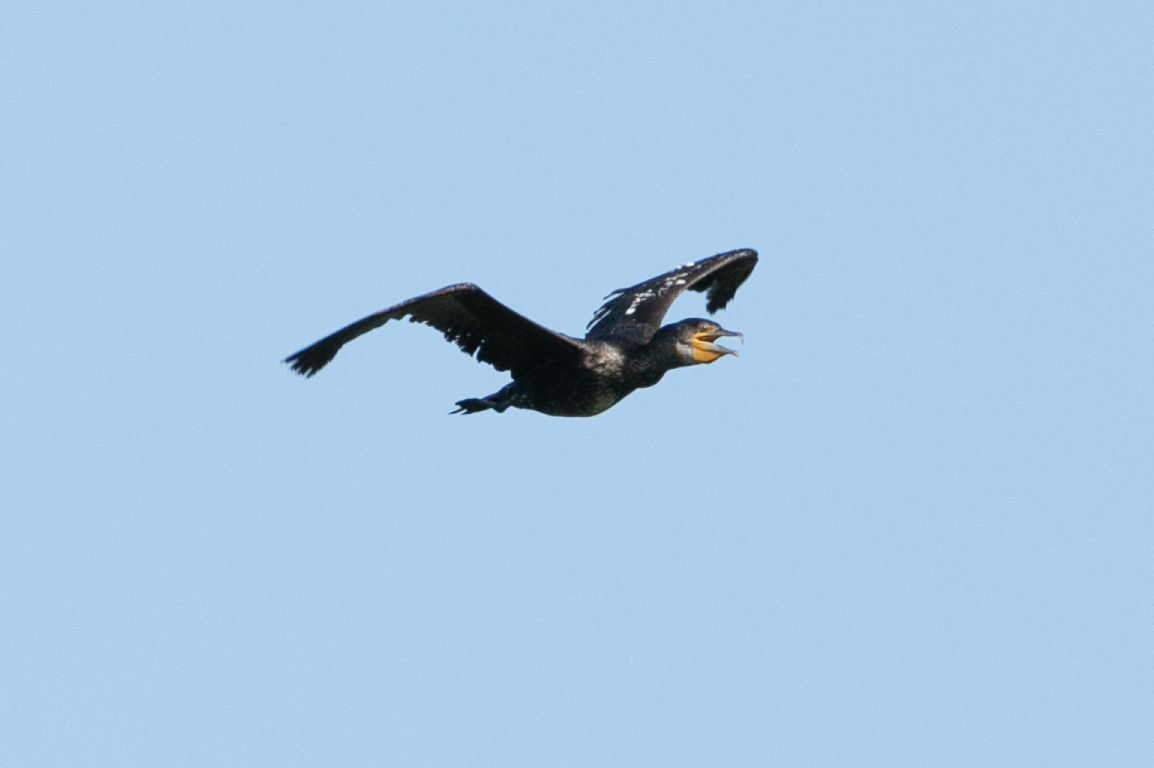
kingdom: Animalia
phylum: Chordata
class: Aves
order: Suliformes
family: Phalacrocoracidae
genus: Phalacrocorax
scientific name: Phalacrocorax carbo
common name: Great cormorant
